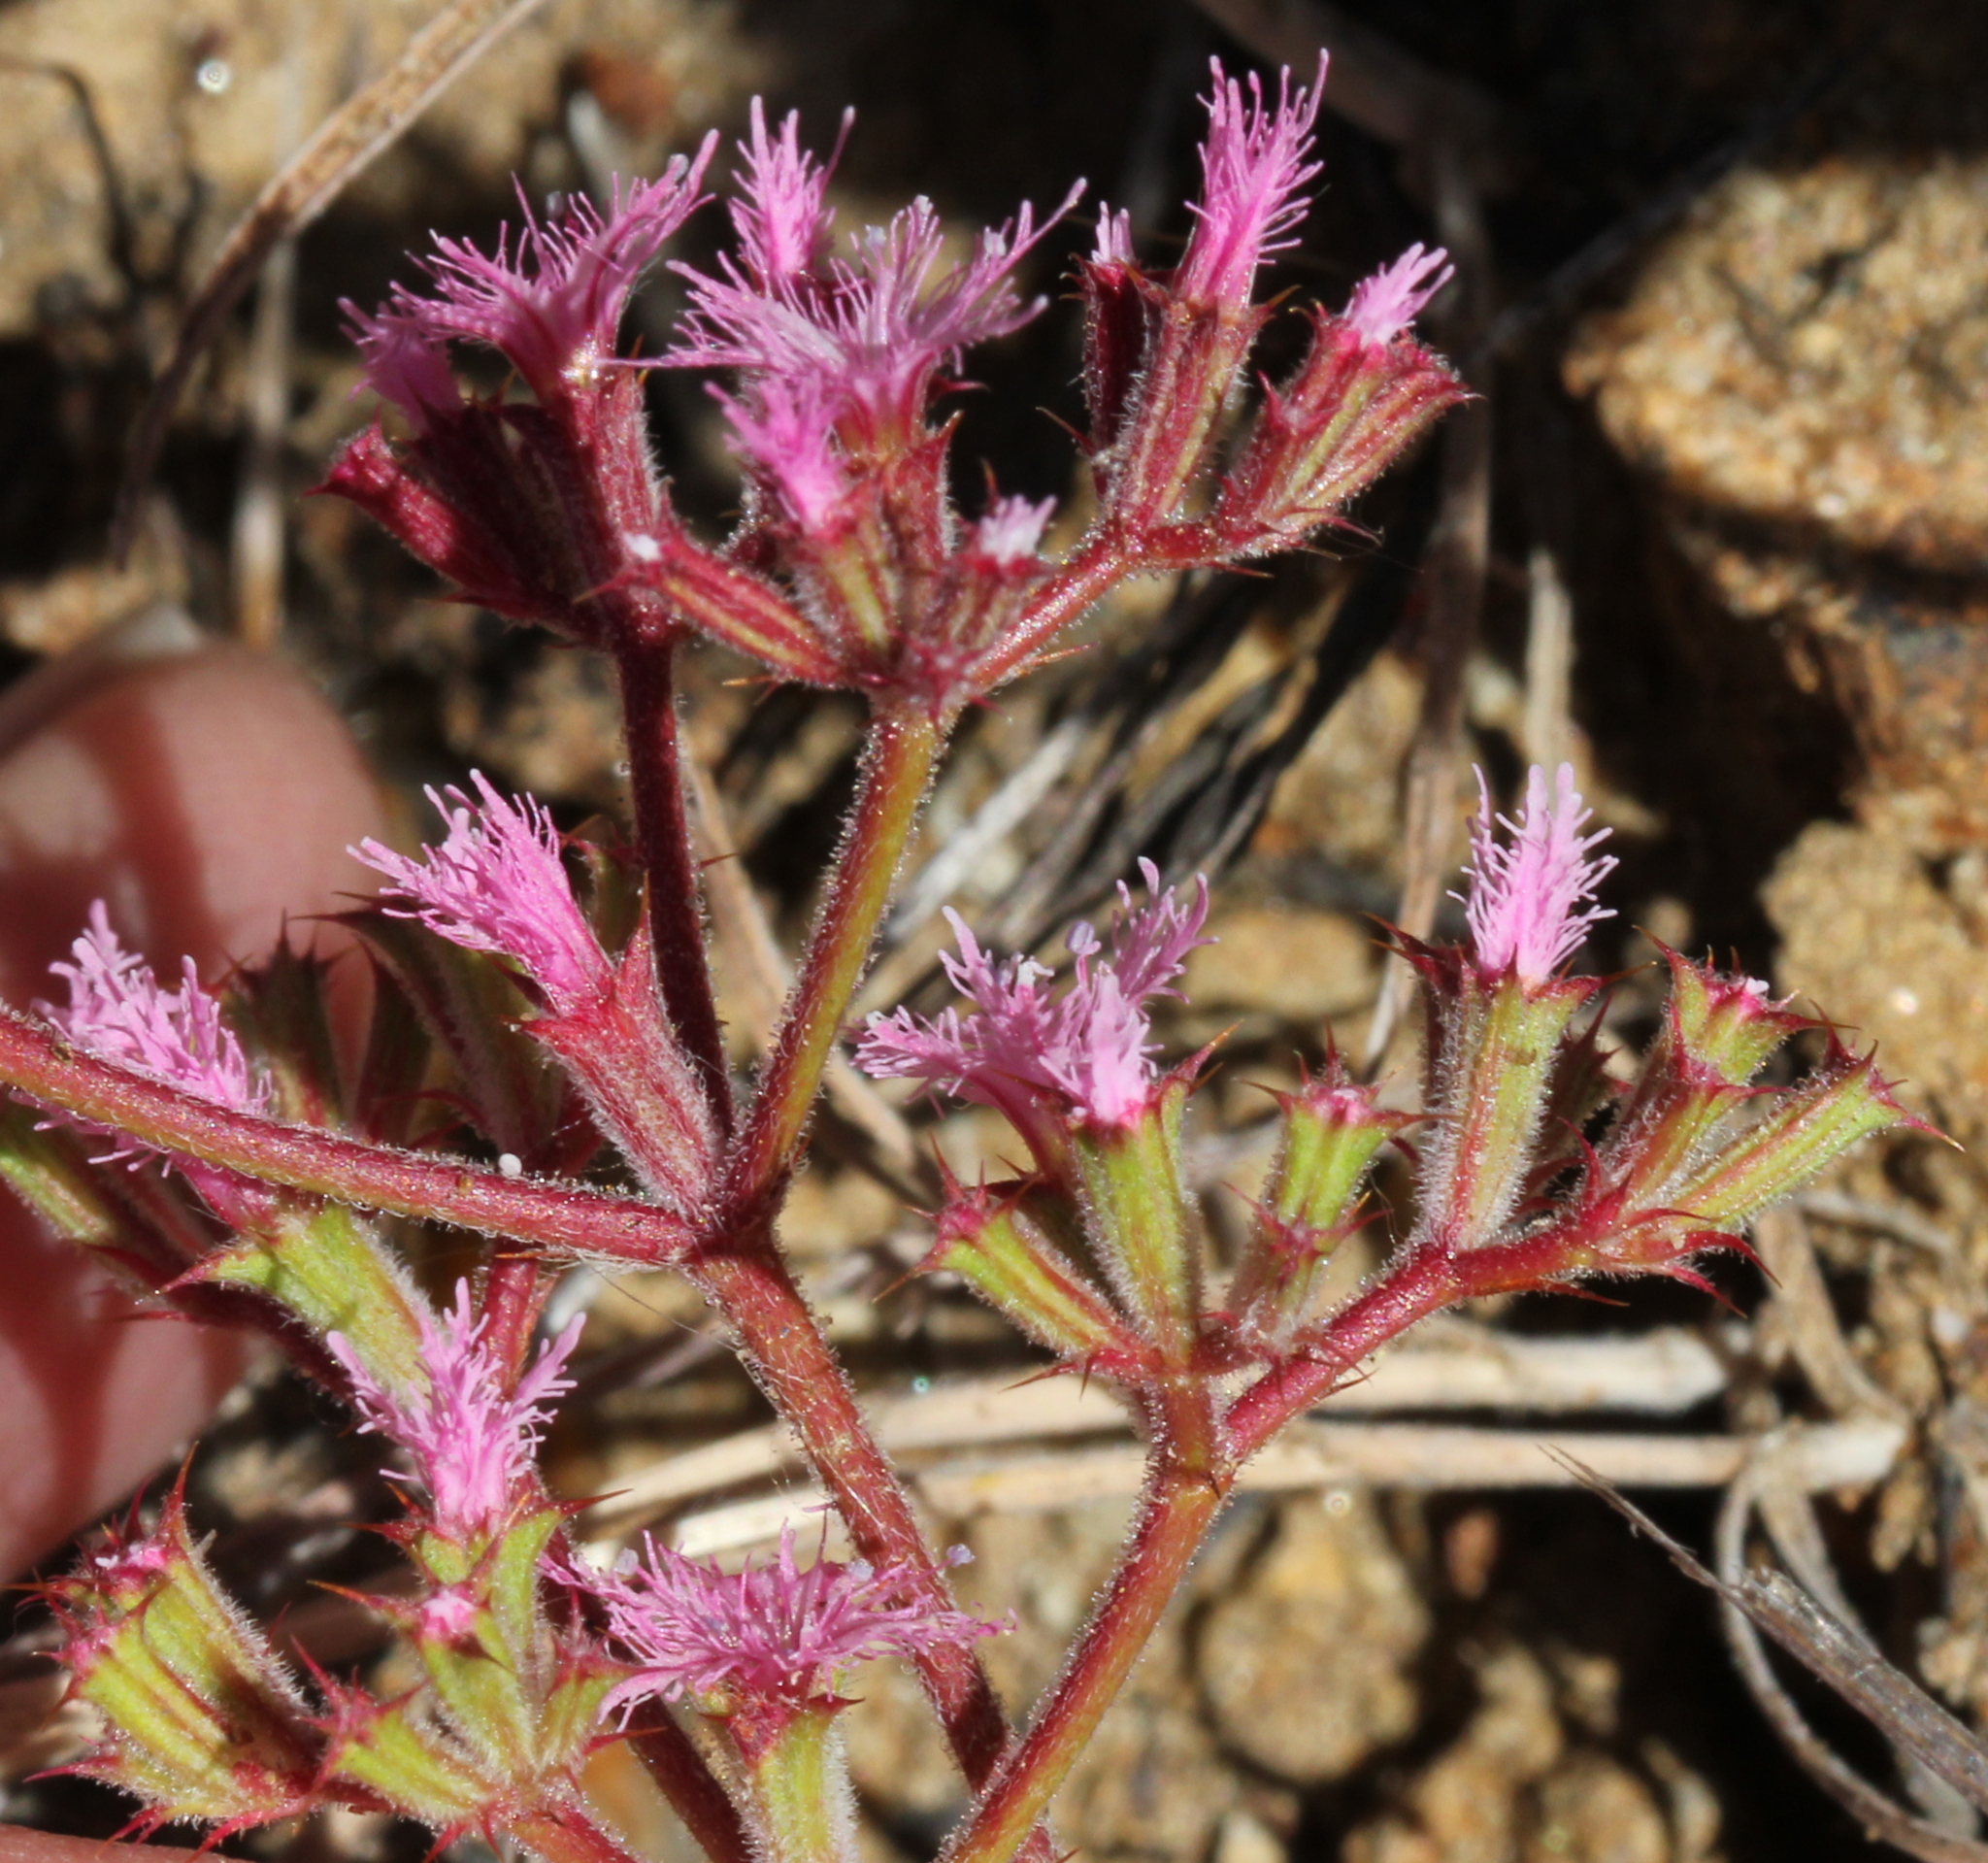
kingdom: Plantae
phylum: Tracheophyta
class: Magnoliopsida
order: Caryophyllales
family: Polygonaceae
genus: Chorizanthe
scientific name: Chorizanthe fimbriata
